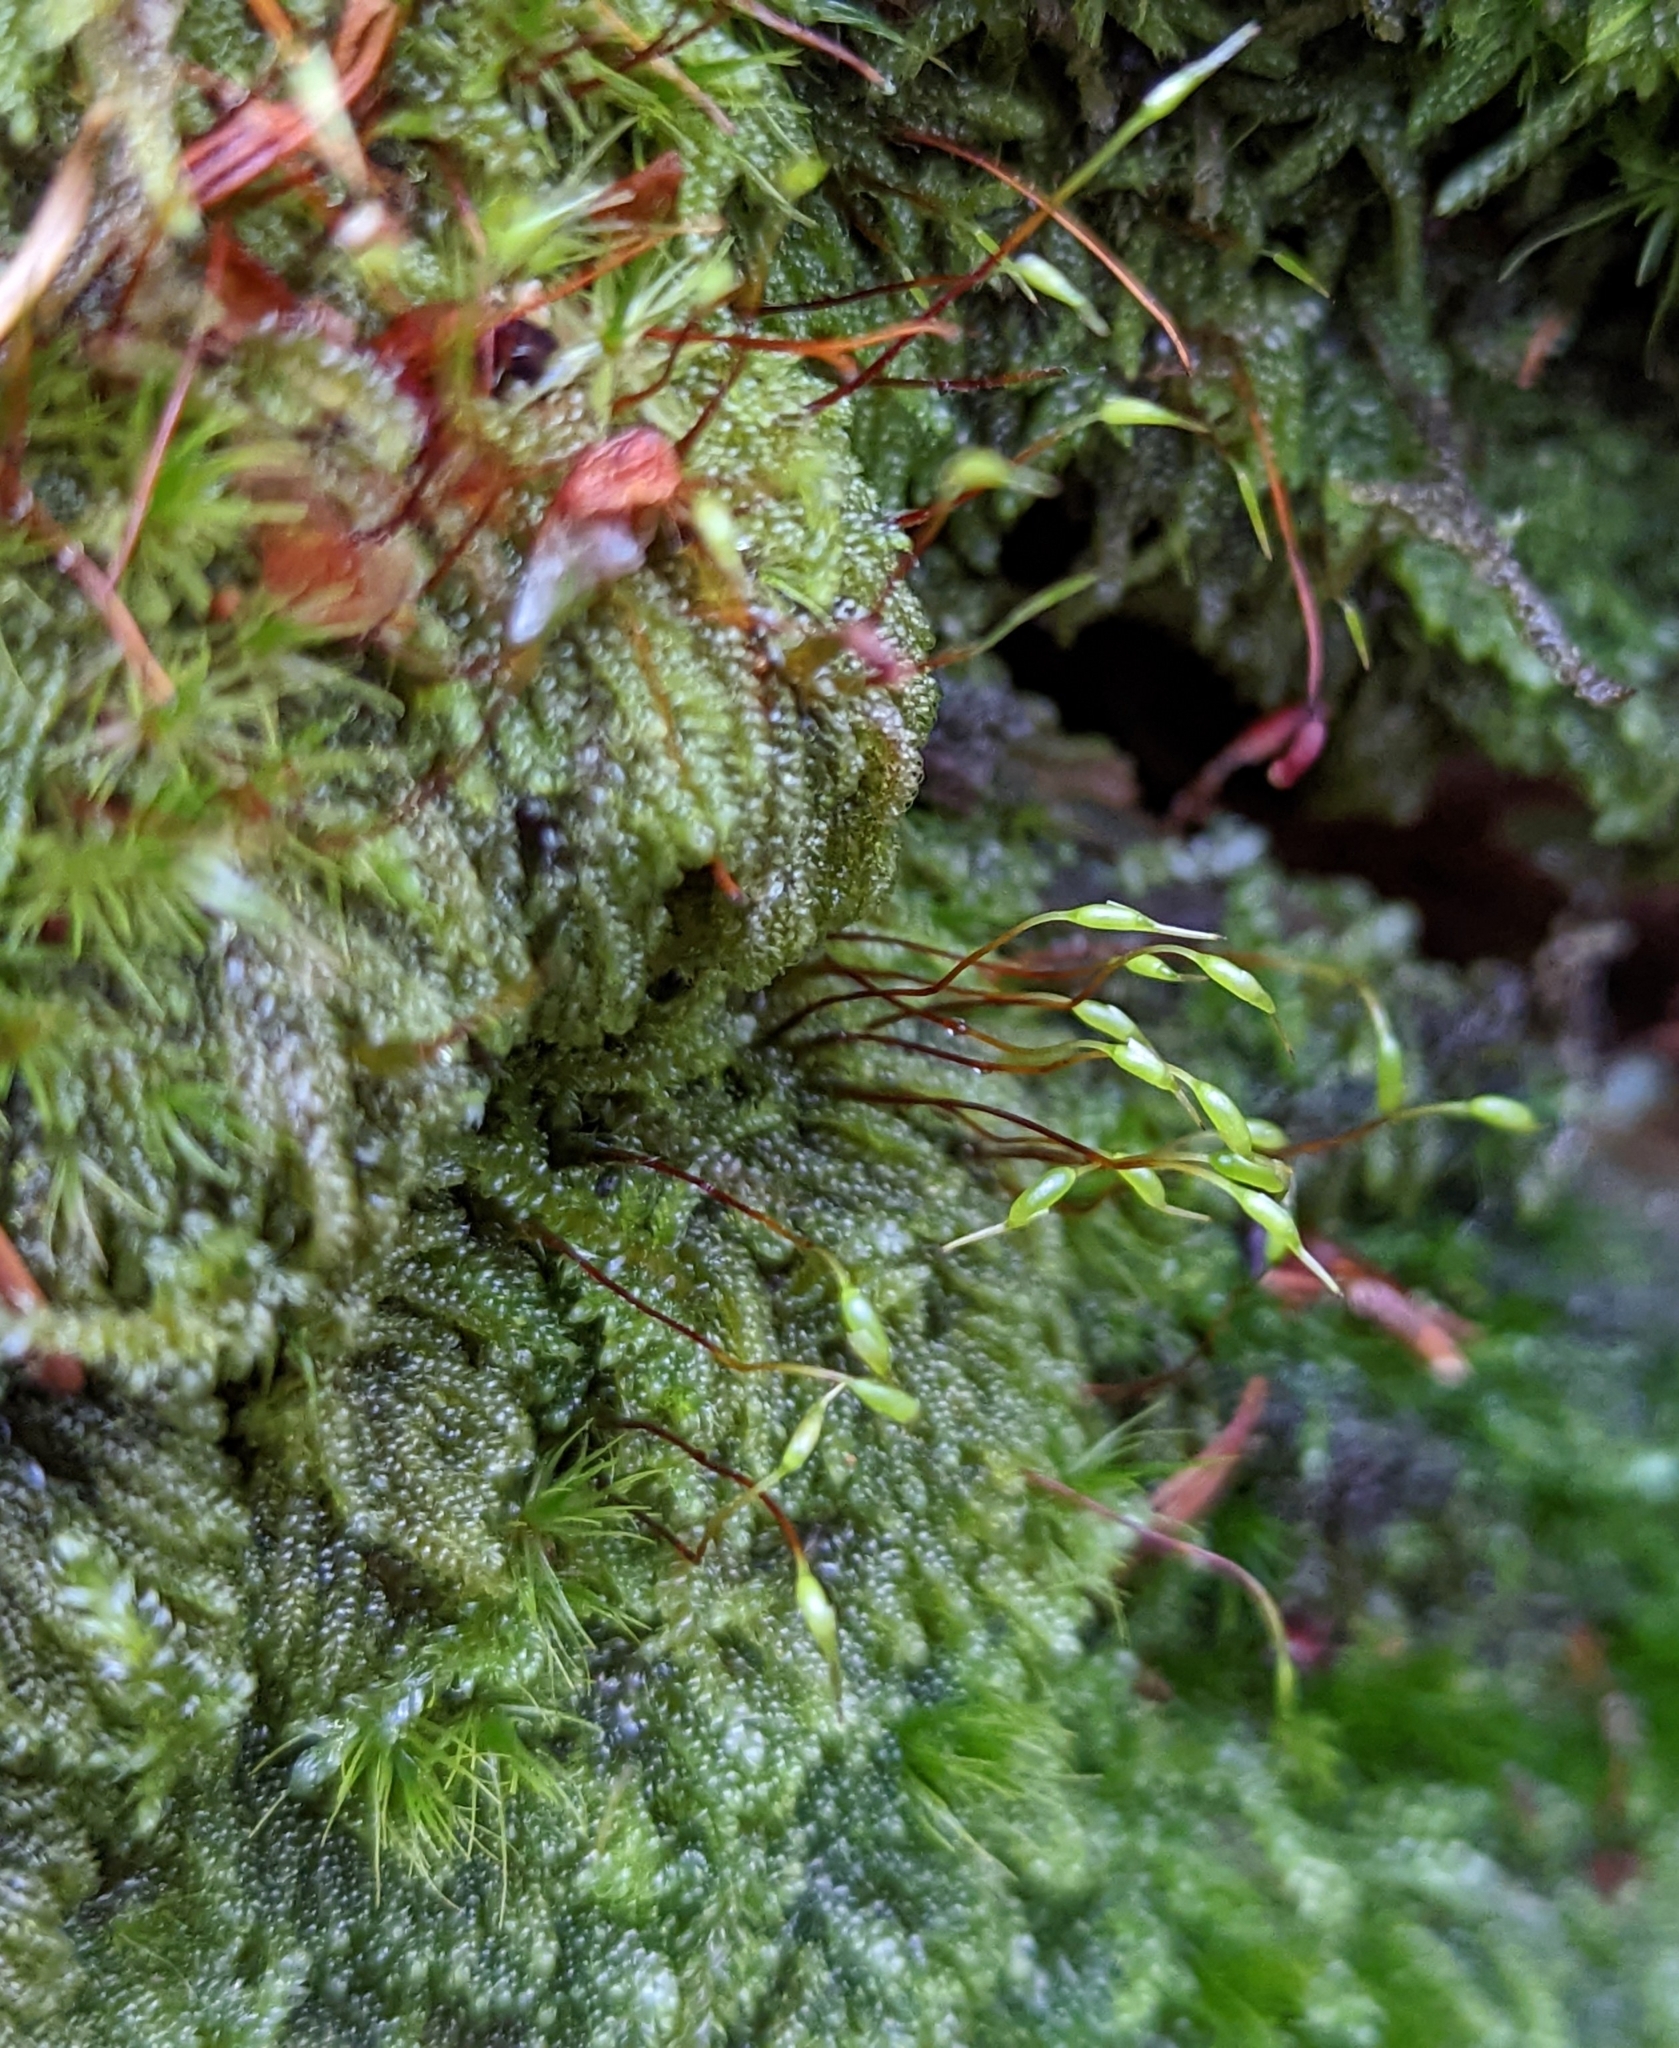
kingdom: Plantae
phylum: Bryophyta
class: Bryopsida
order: Hypnales
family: Pylaisiadelphaceae
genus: Trochophyllohypnum
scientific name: Trochophyllohypnum circinale
